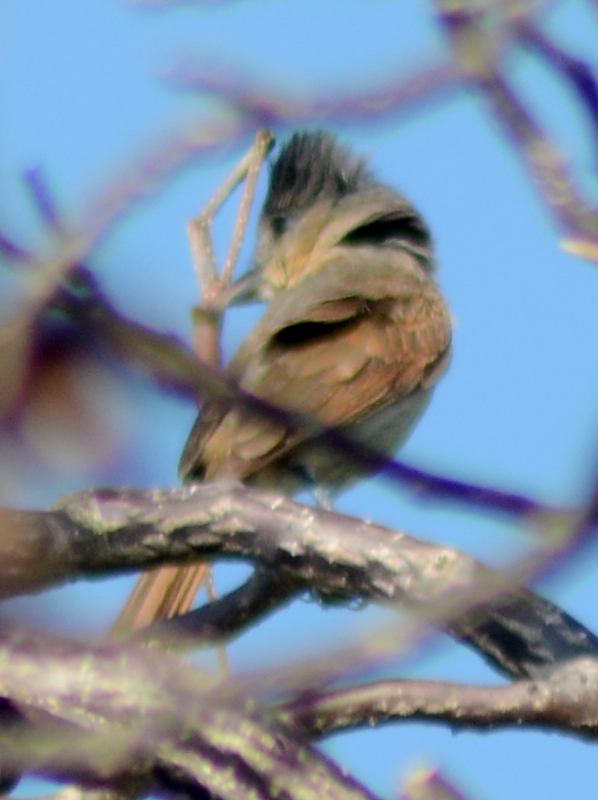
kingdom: Animalia
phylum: Chordata
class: Aves
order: Passeriformes
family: Cotingidae
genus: Pachyramphus
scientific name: Pachyramphus aglaiae
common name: Rose-throated becard
